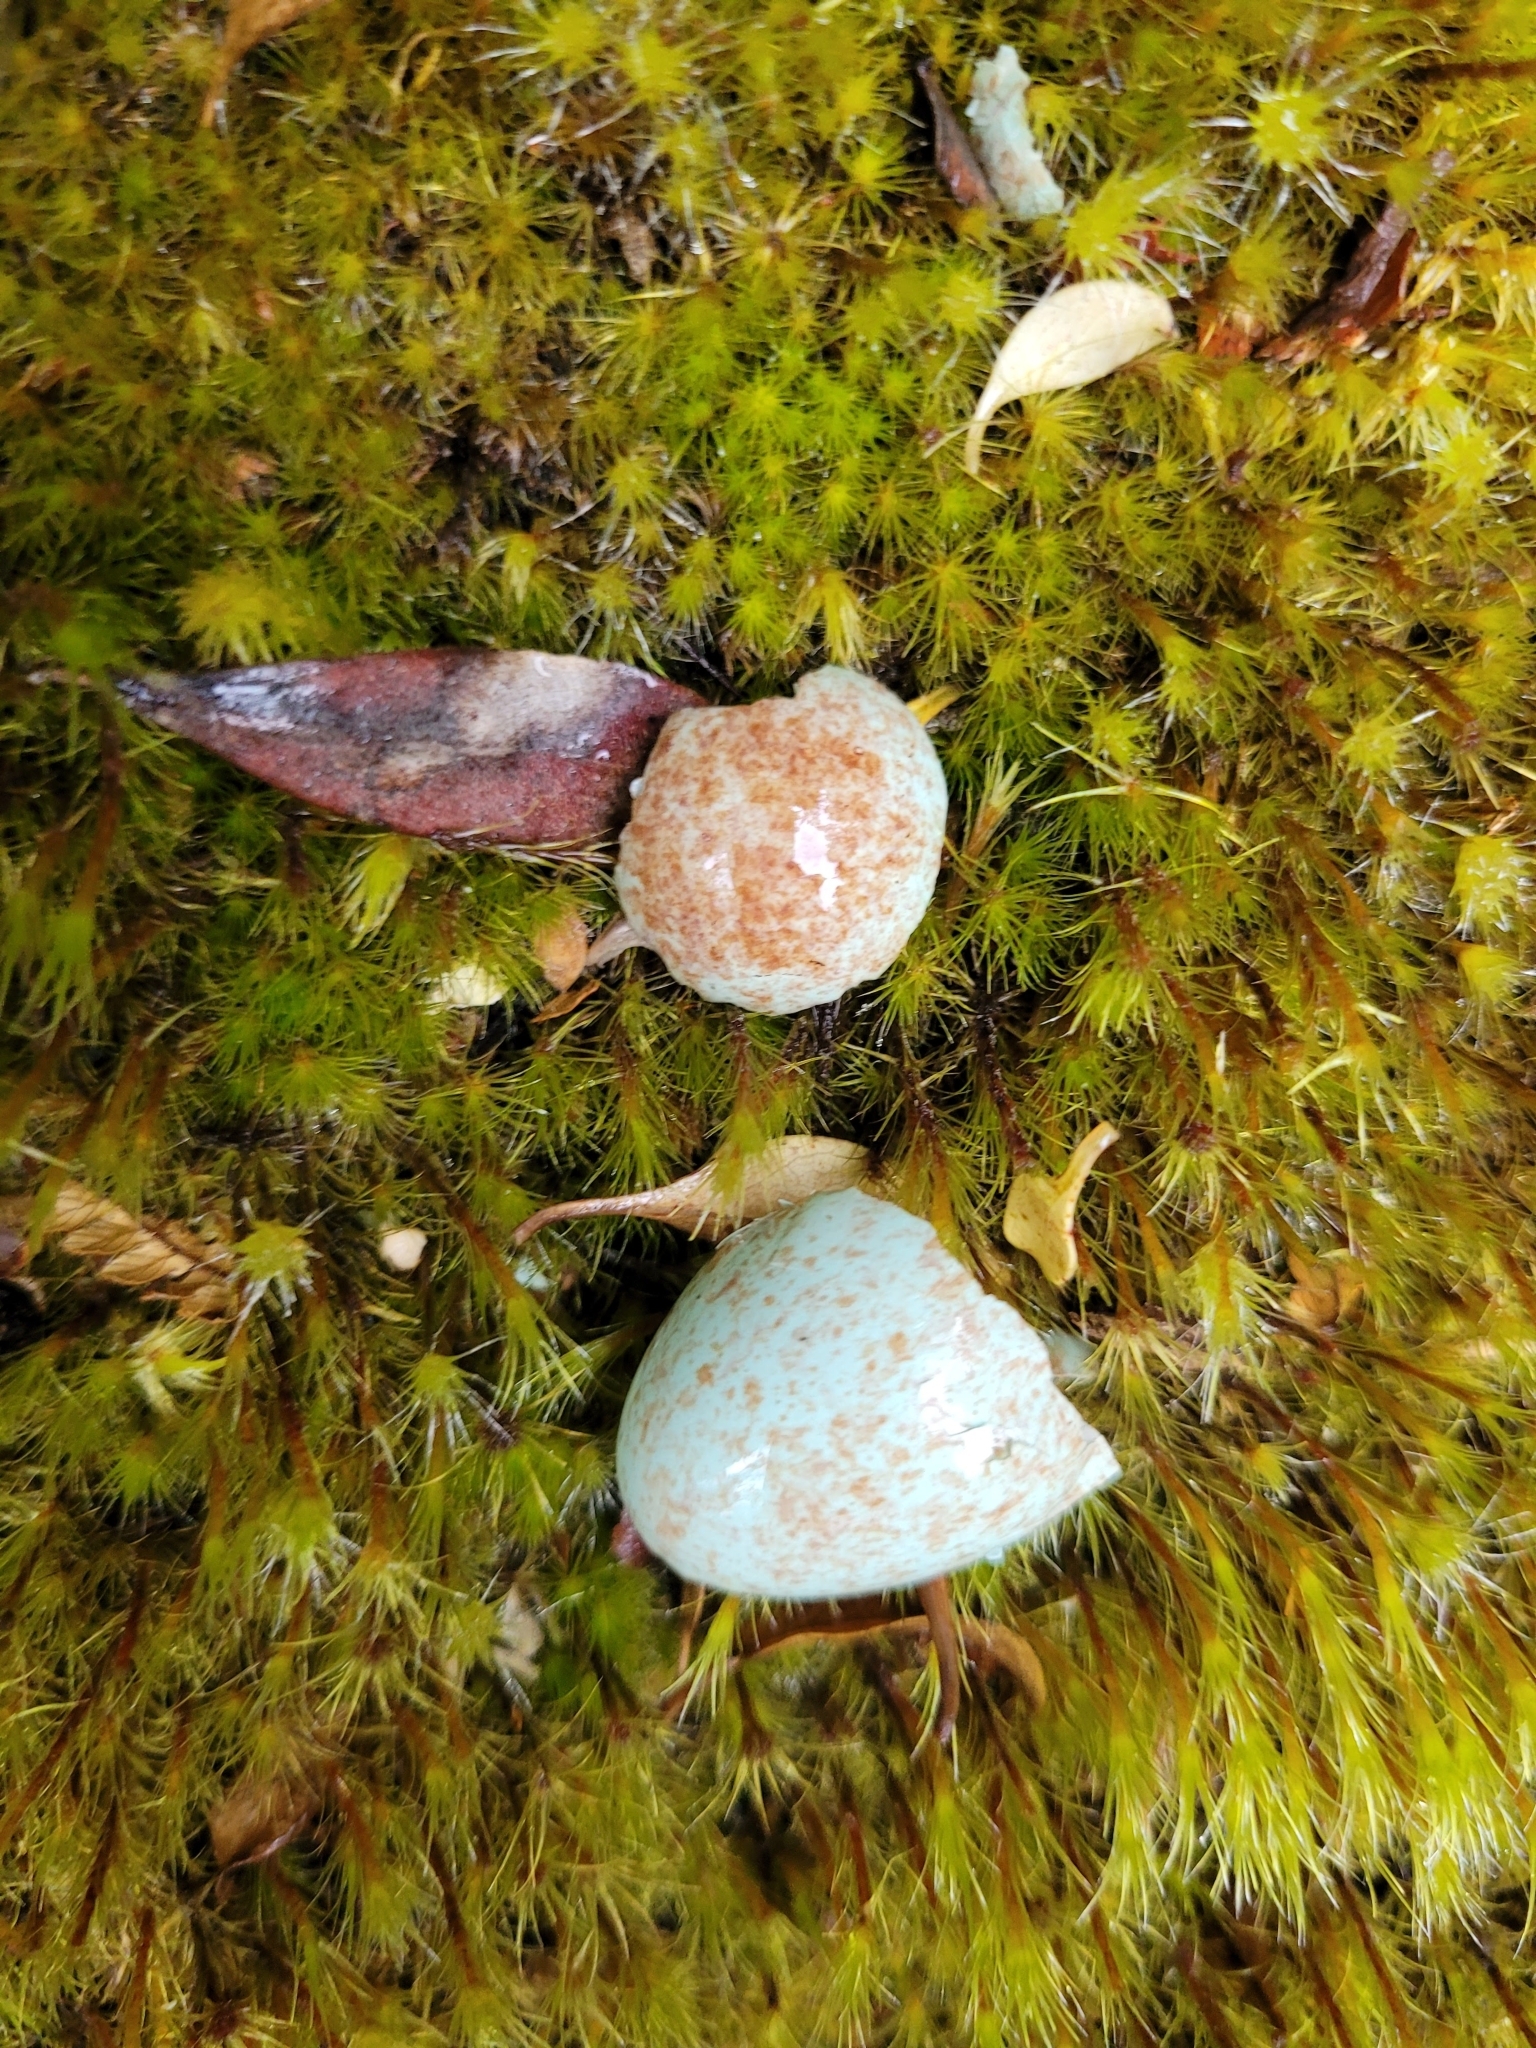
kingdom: Animalia
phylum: Chordata
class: Aves
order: Passeriformes
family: Turdidae
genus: Turdus
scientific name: Turdus merula
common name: Common blackbird
